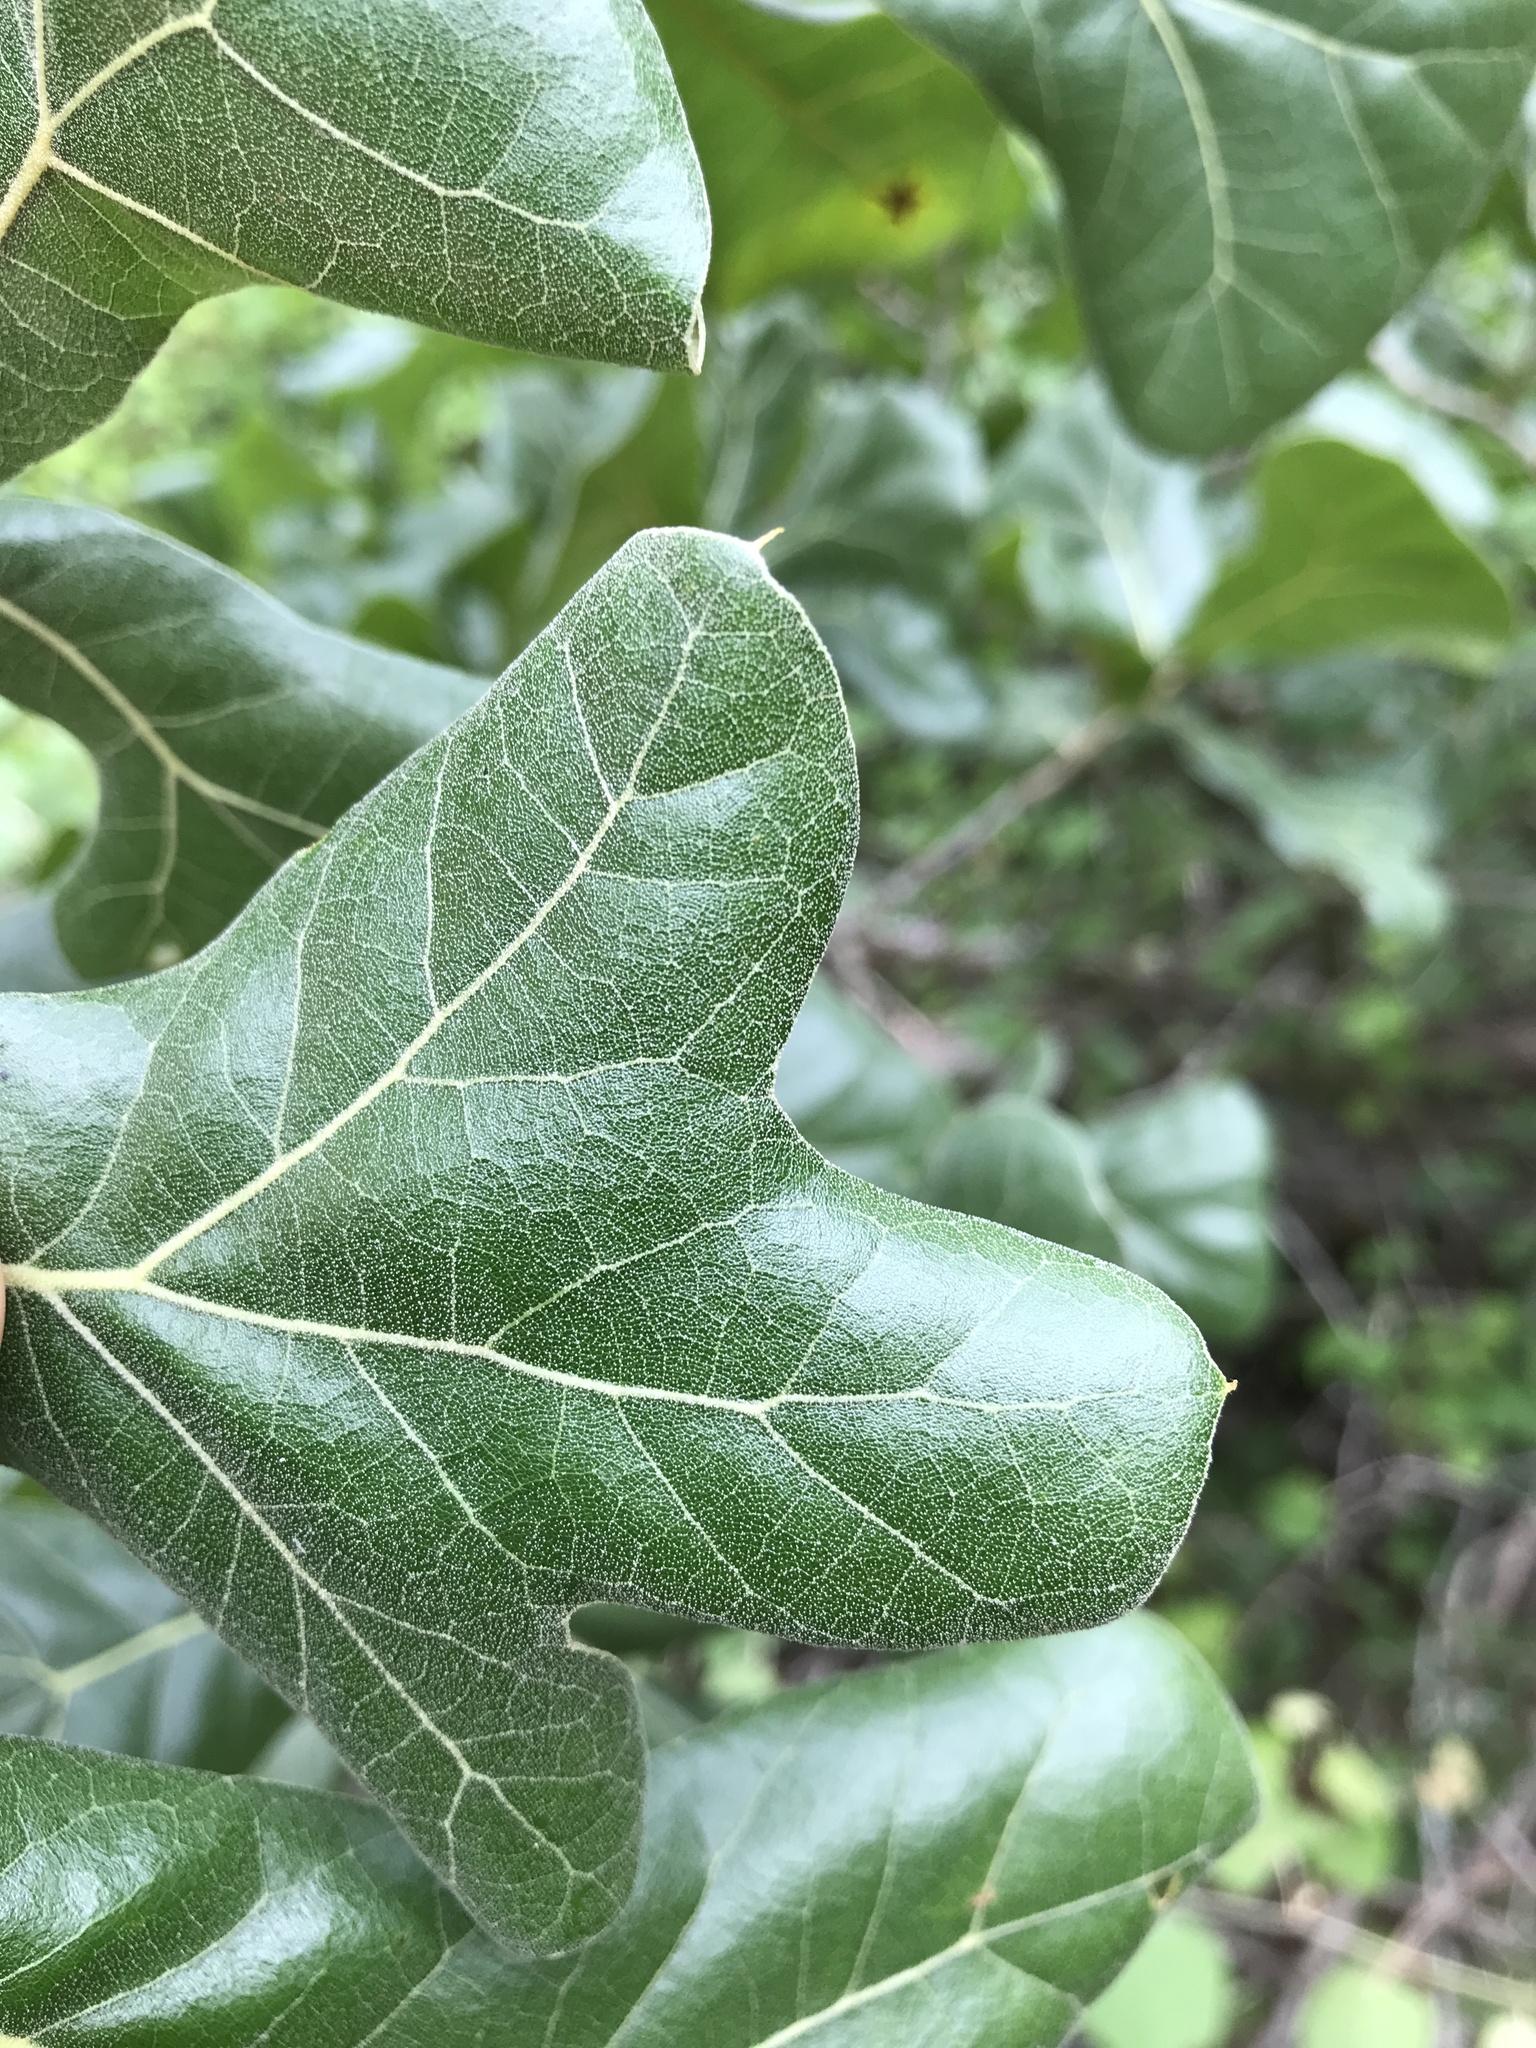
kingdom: Plantae
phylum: Tracheophyta
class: Magnoliopsida
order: Fagales
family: Fagaceae
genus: Quercus
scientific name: Quercus marilandica
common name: Blackjack oak
